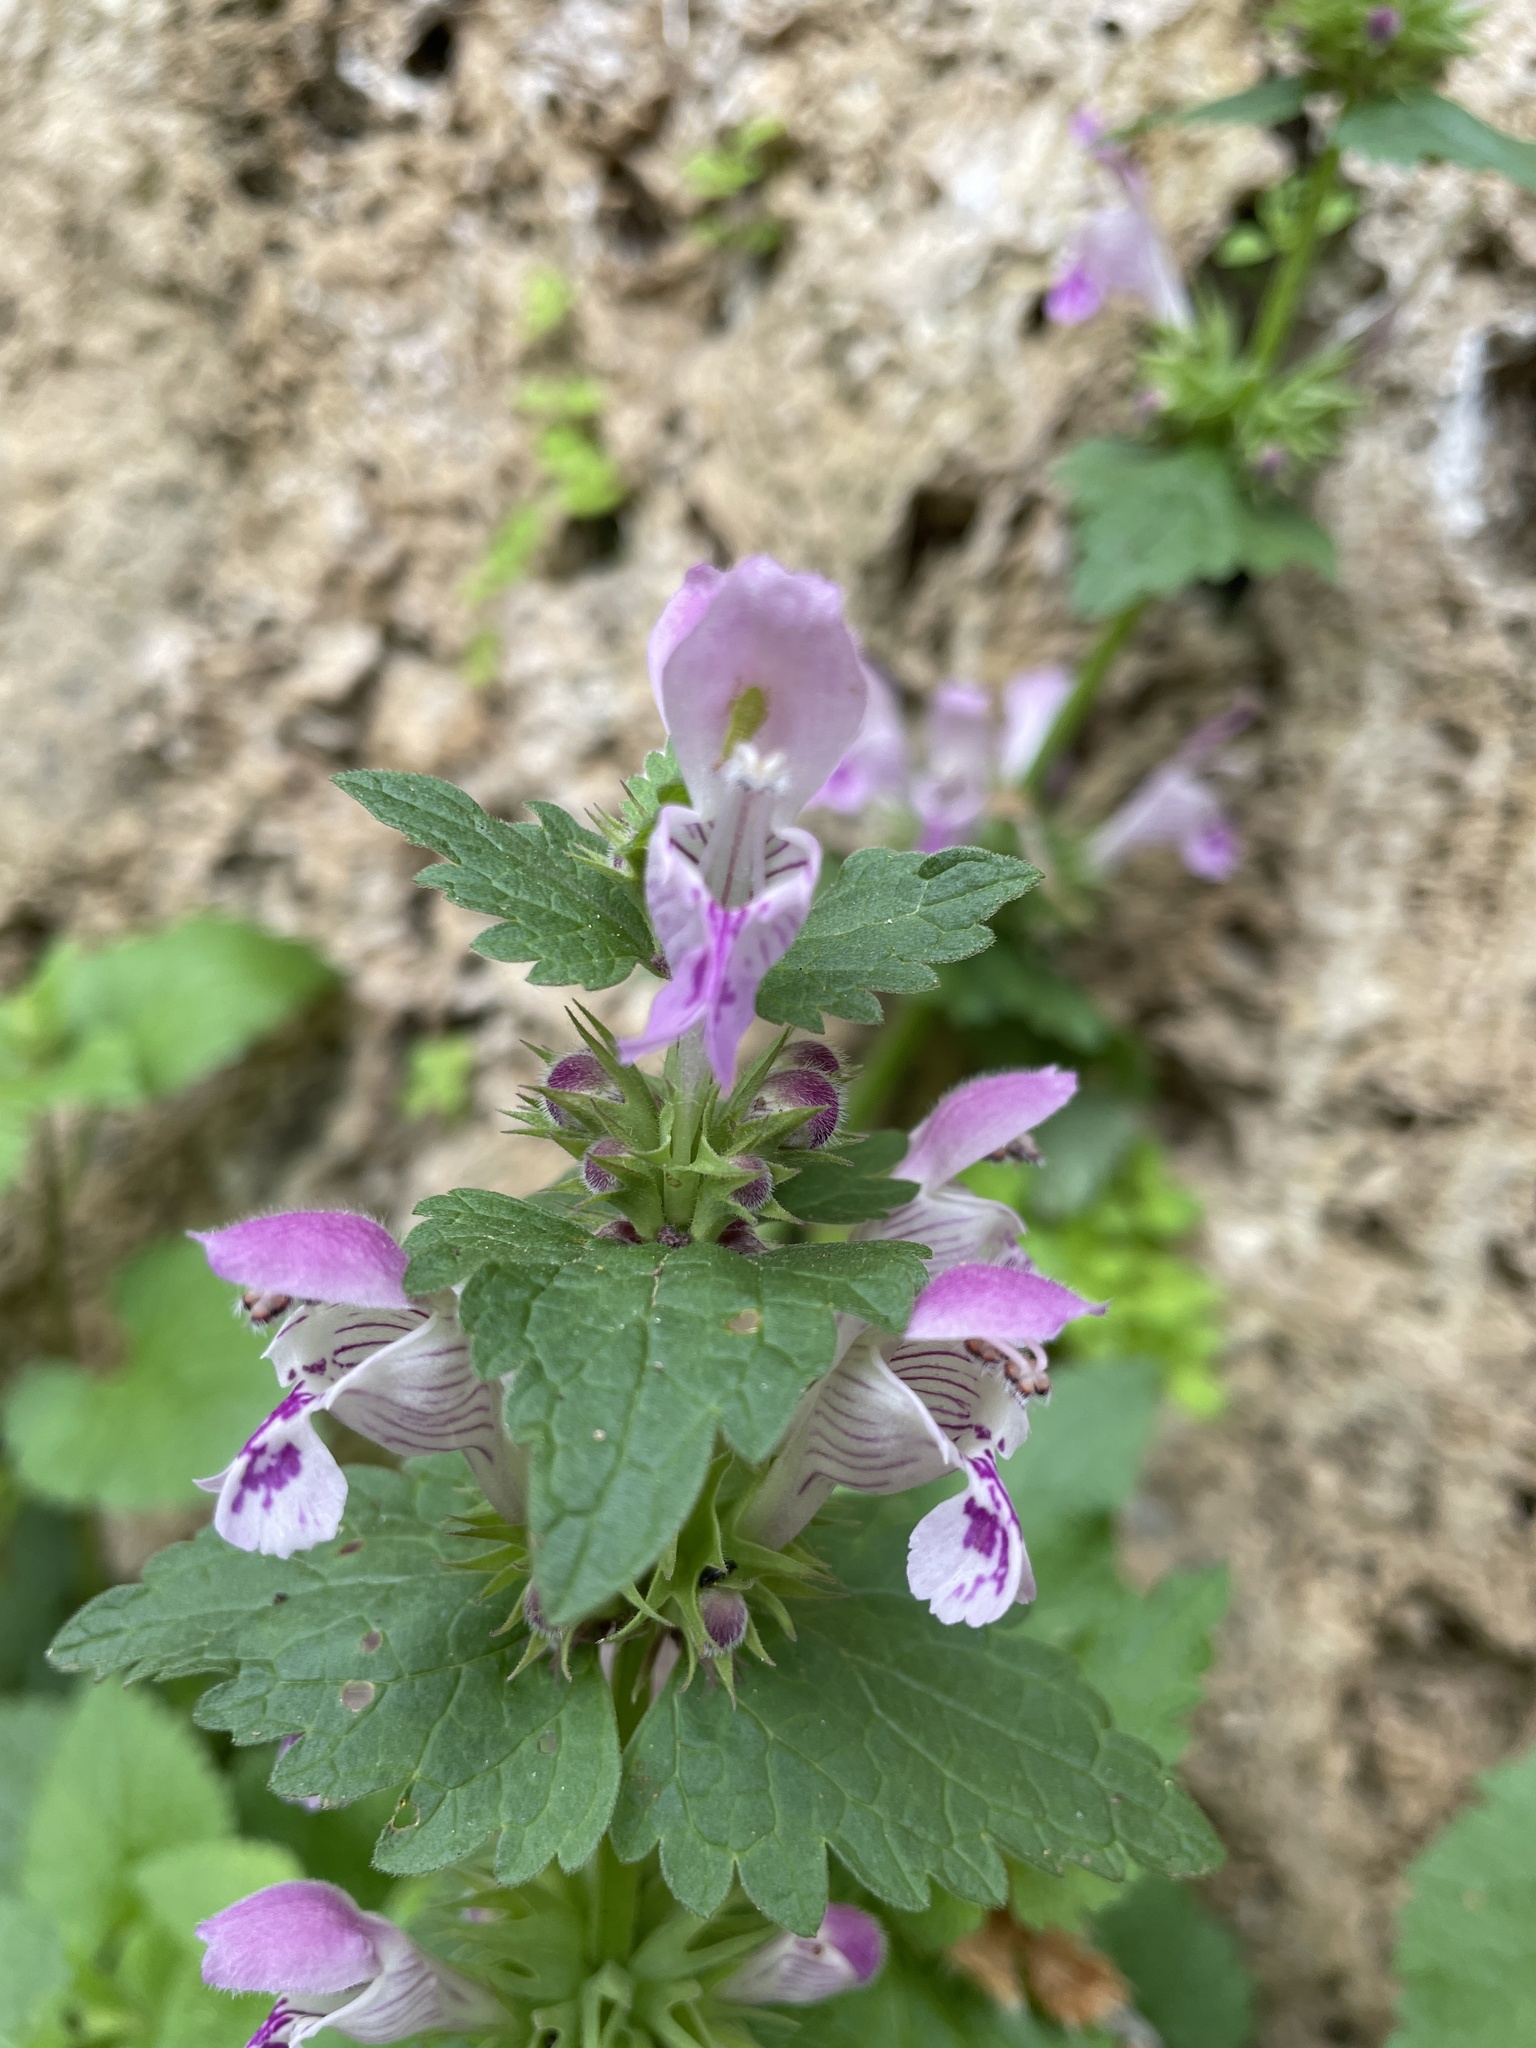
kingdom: Plantae
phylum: Tracheophyta
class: Magnoliopsida
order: Lamiales
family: Lamiaceae
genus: Lamium
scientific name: Lamium garganicum
